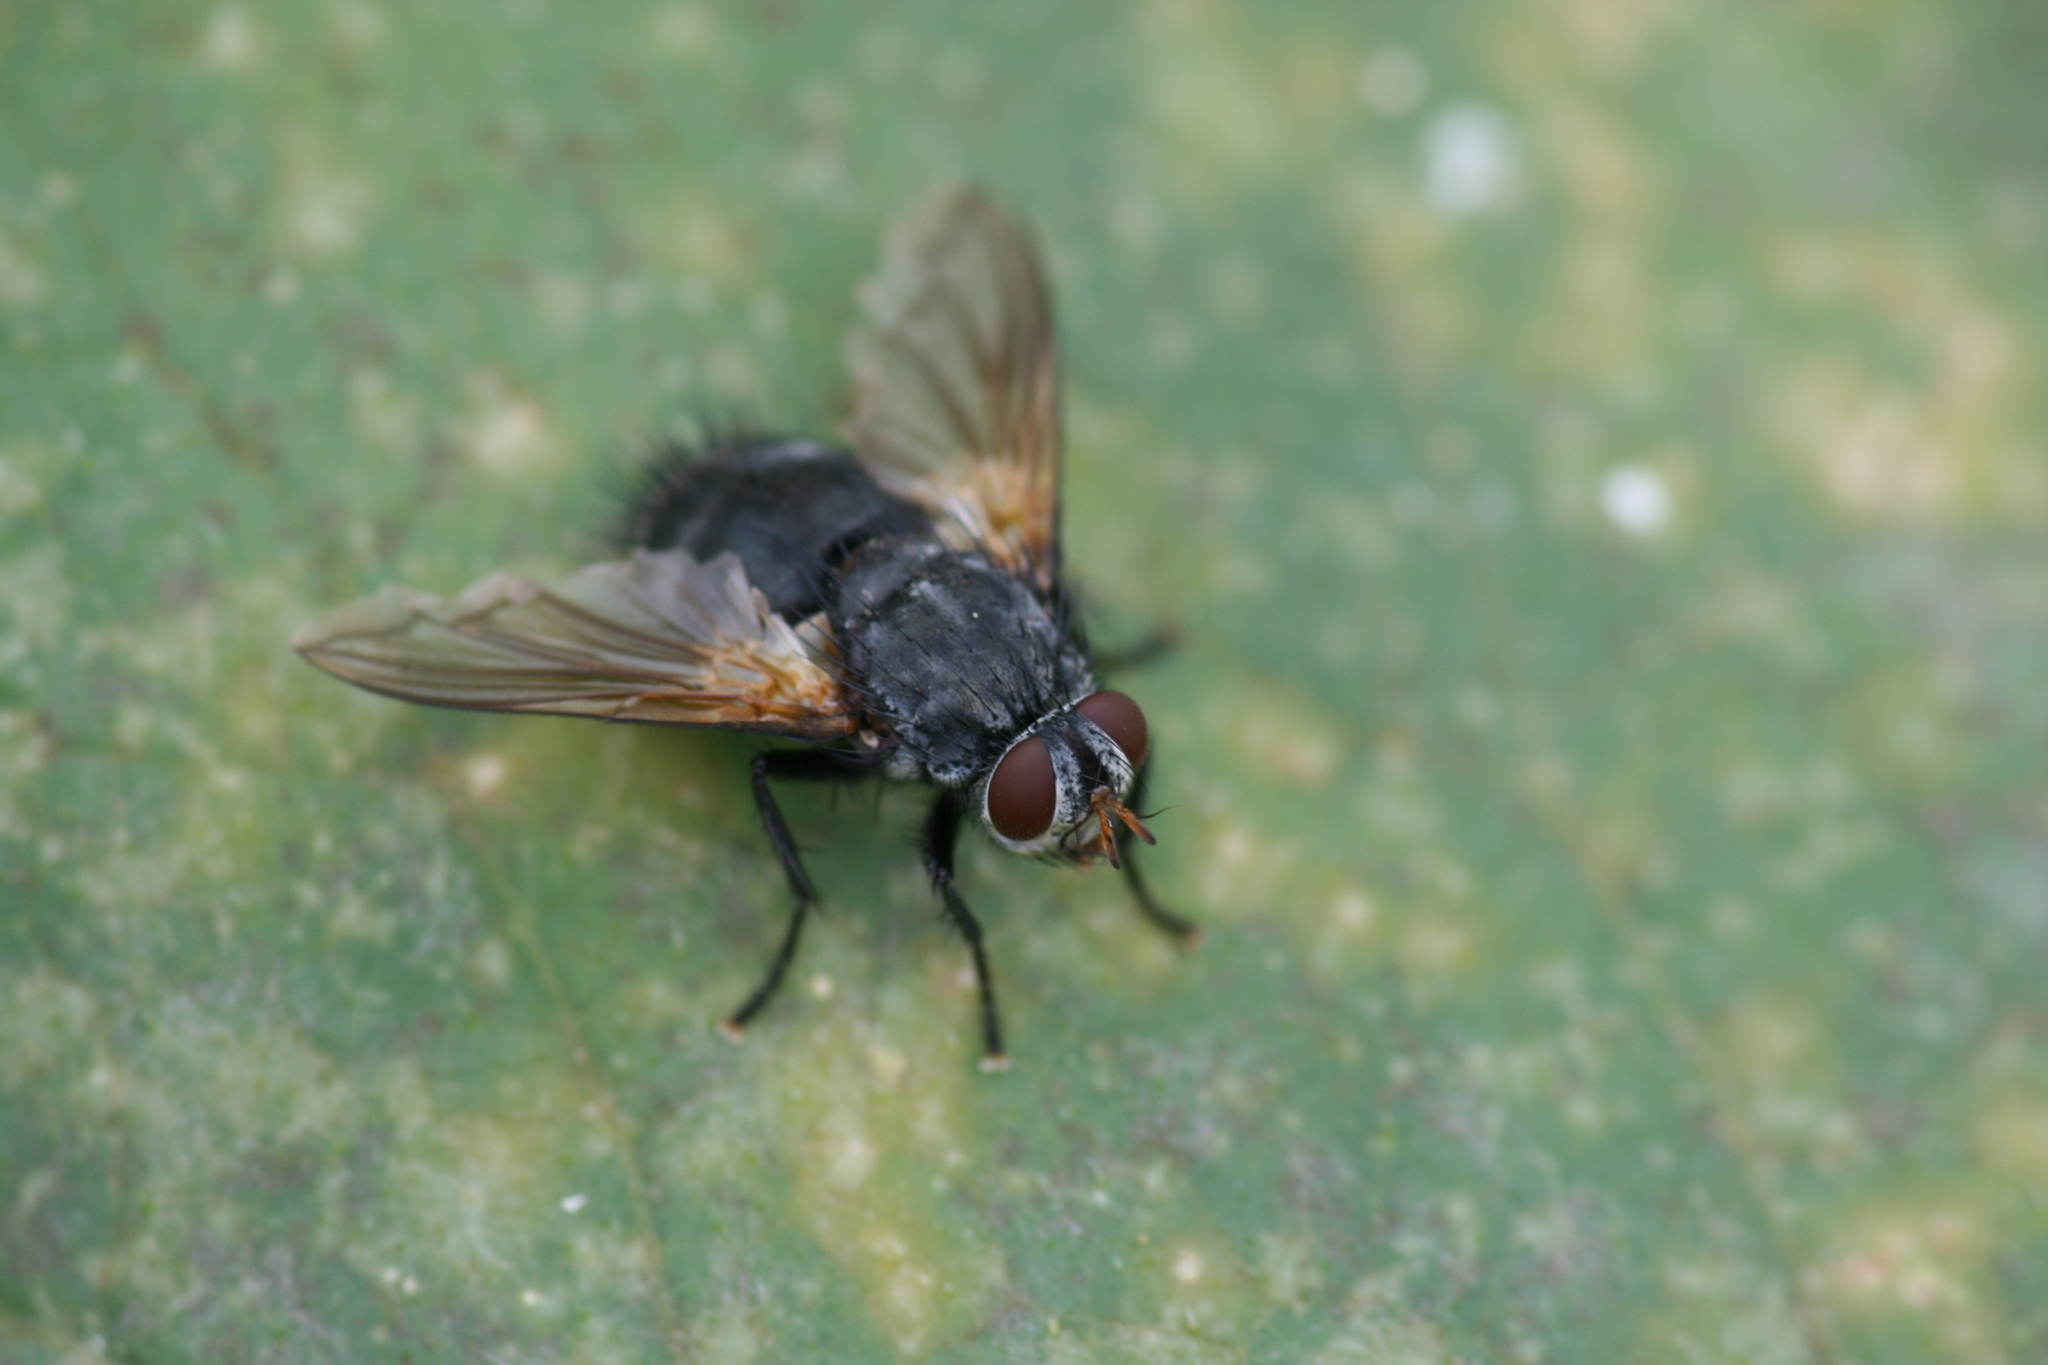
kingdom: Animalia
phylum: Arthropoda
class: Insecta
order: Diptera
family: Tachinidae
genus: Nemoraea
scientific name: Nemoraea pellucida
